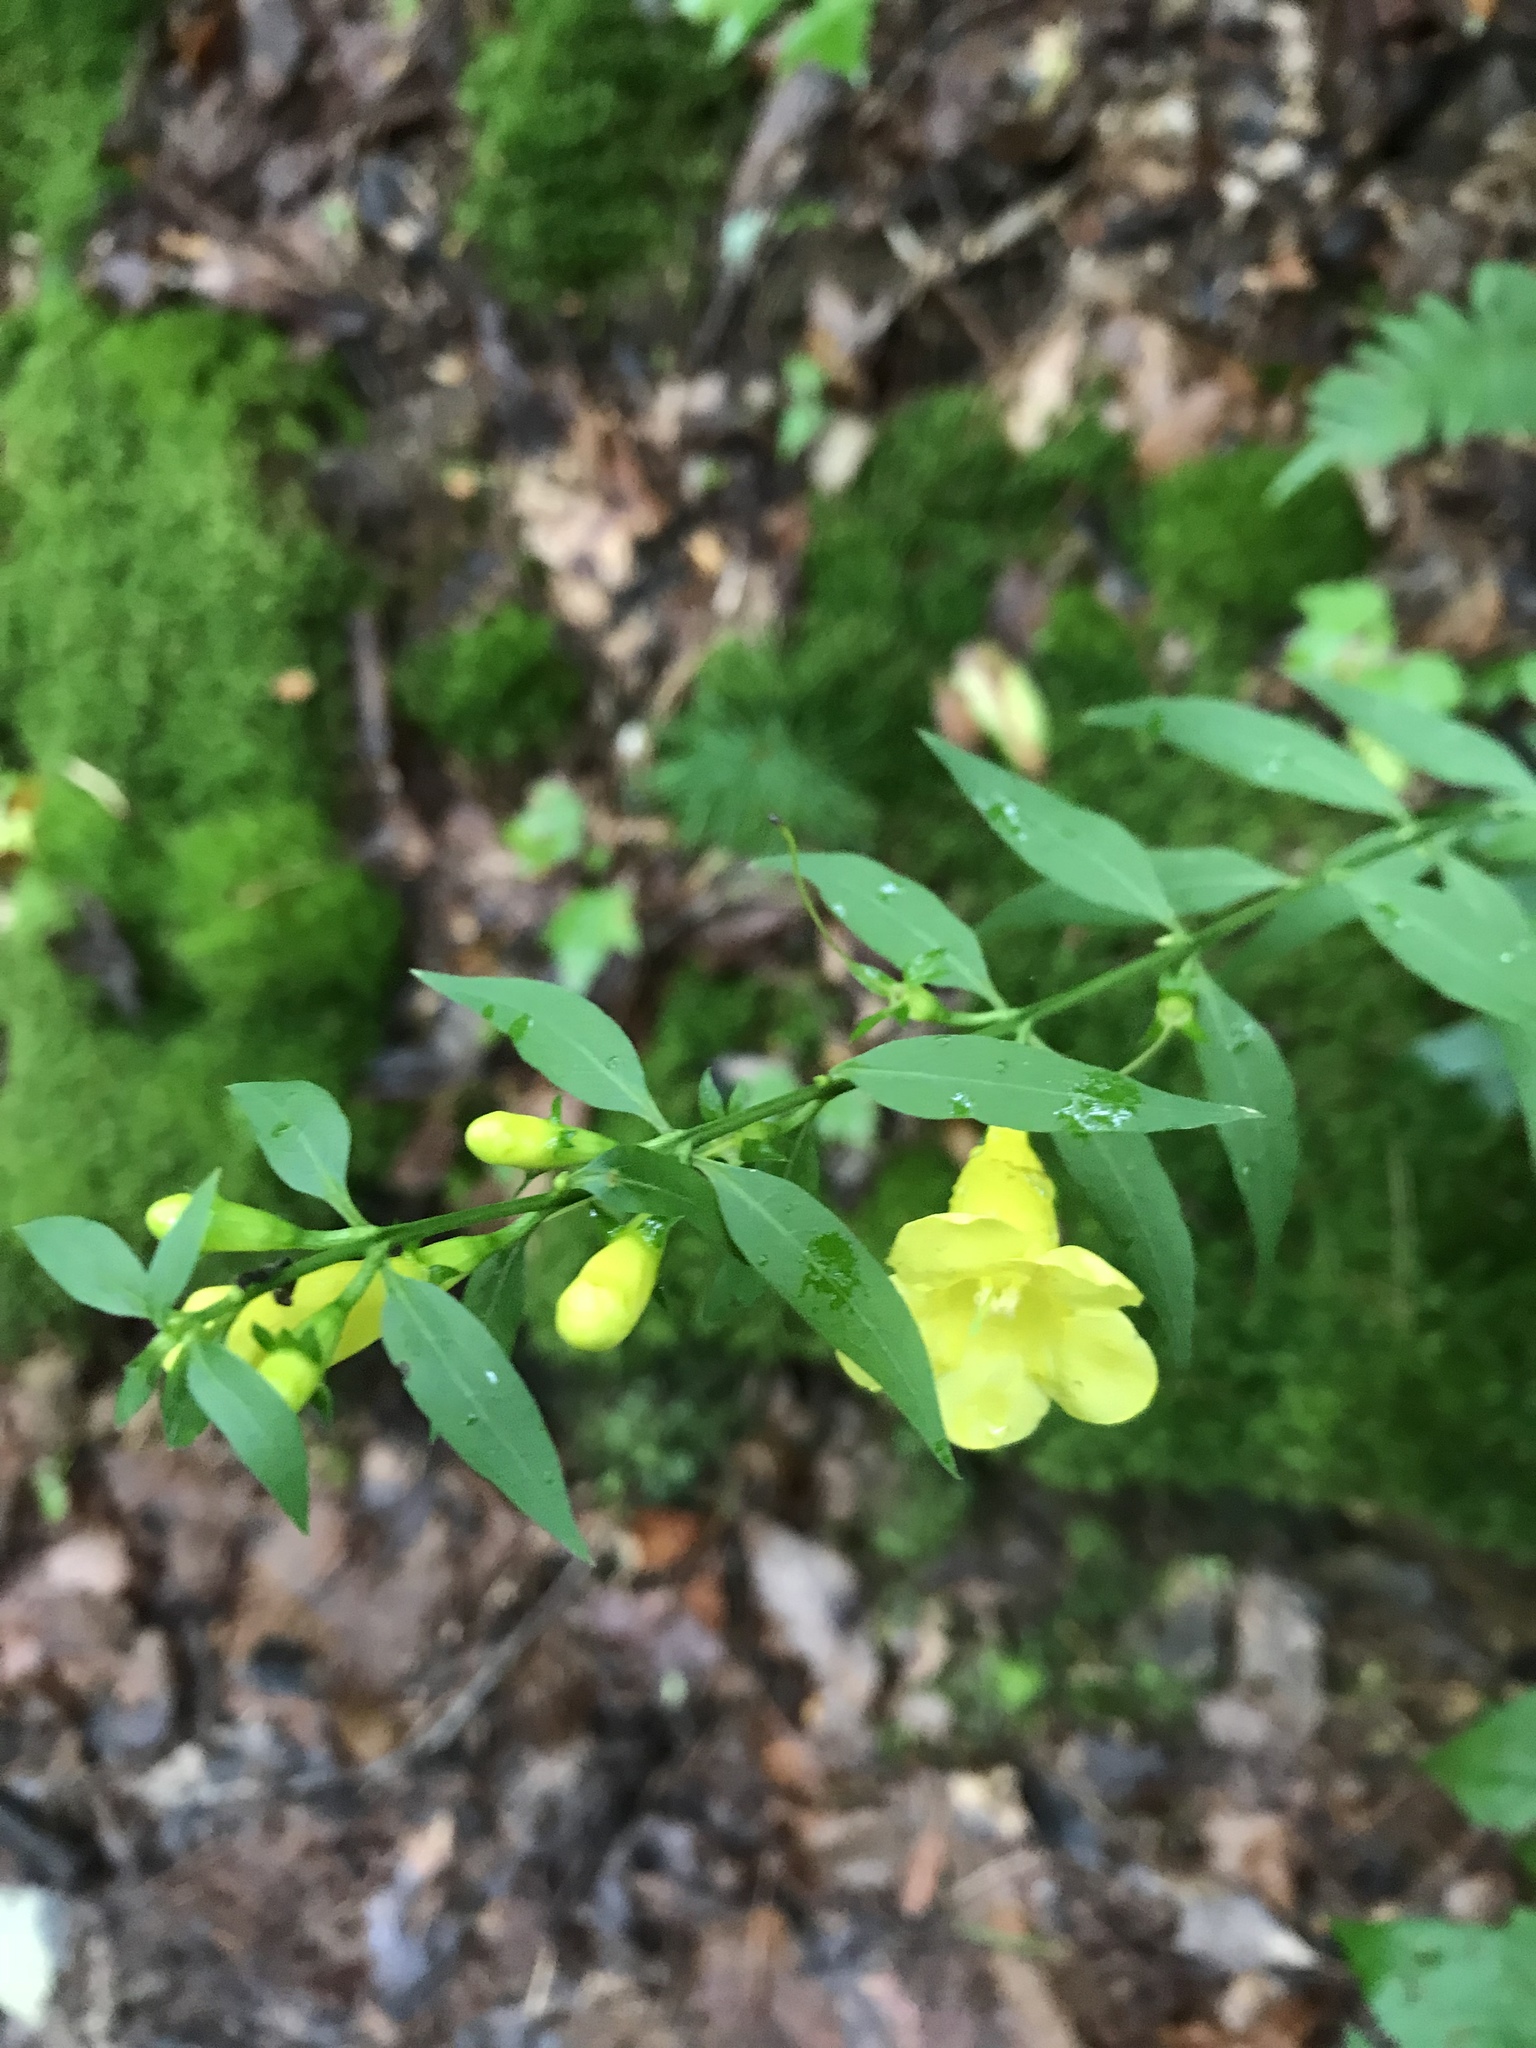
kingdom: Plantae
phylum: Tracheophyta
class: Magnoliopsida
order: Lamiales
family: Orobanchaceae
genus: Aureolaria
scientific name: Aureolaria levigata
